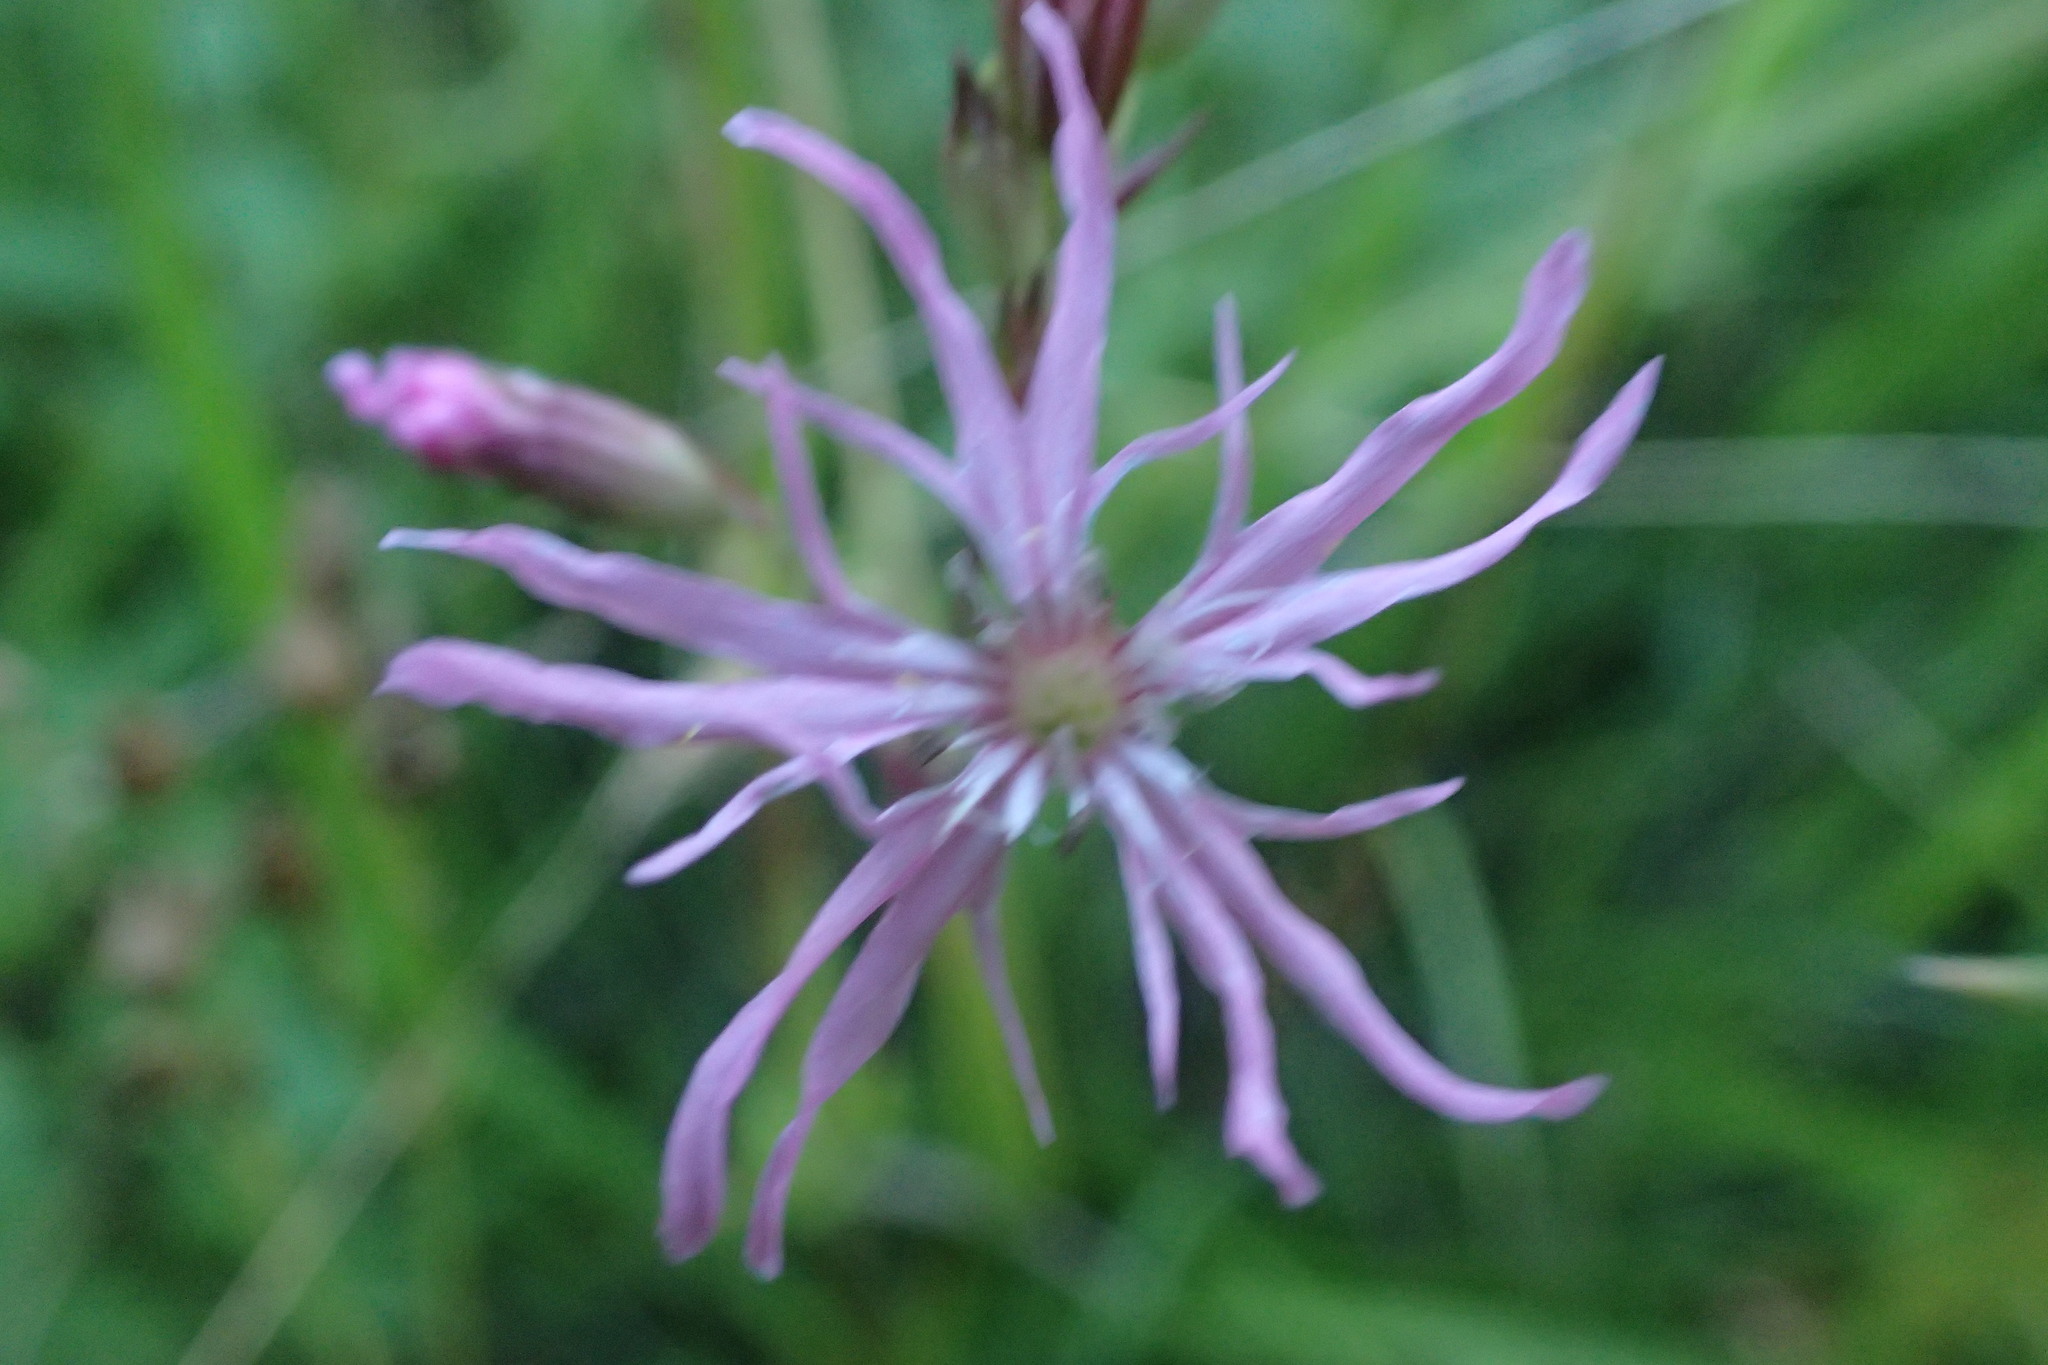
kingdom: Plantae
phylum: Tracheophyta
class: Magnoliopsida
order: Caryophyllales
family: Caryophyllaceae
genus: Silene
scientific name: Silene flos-cuculi
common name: Ragged-robin
